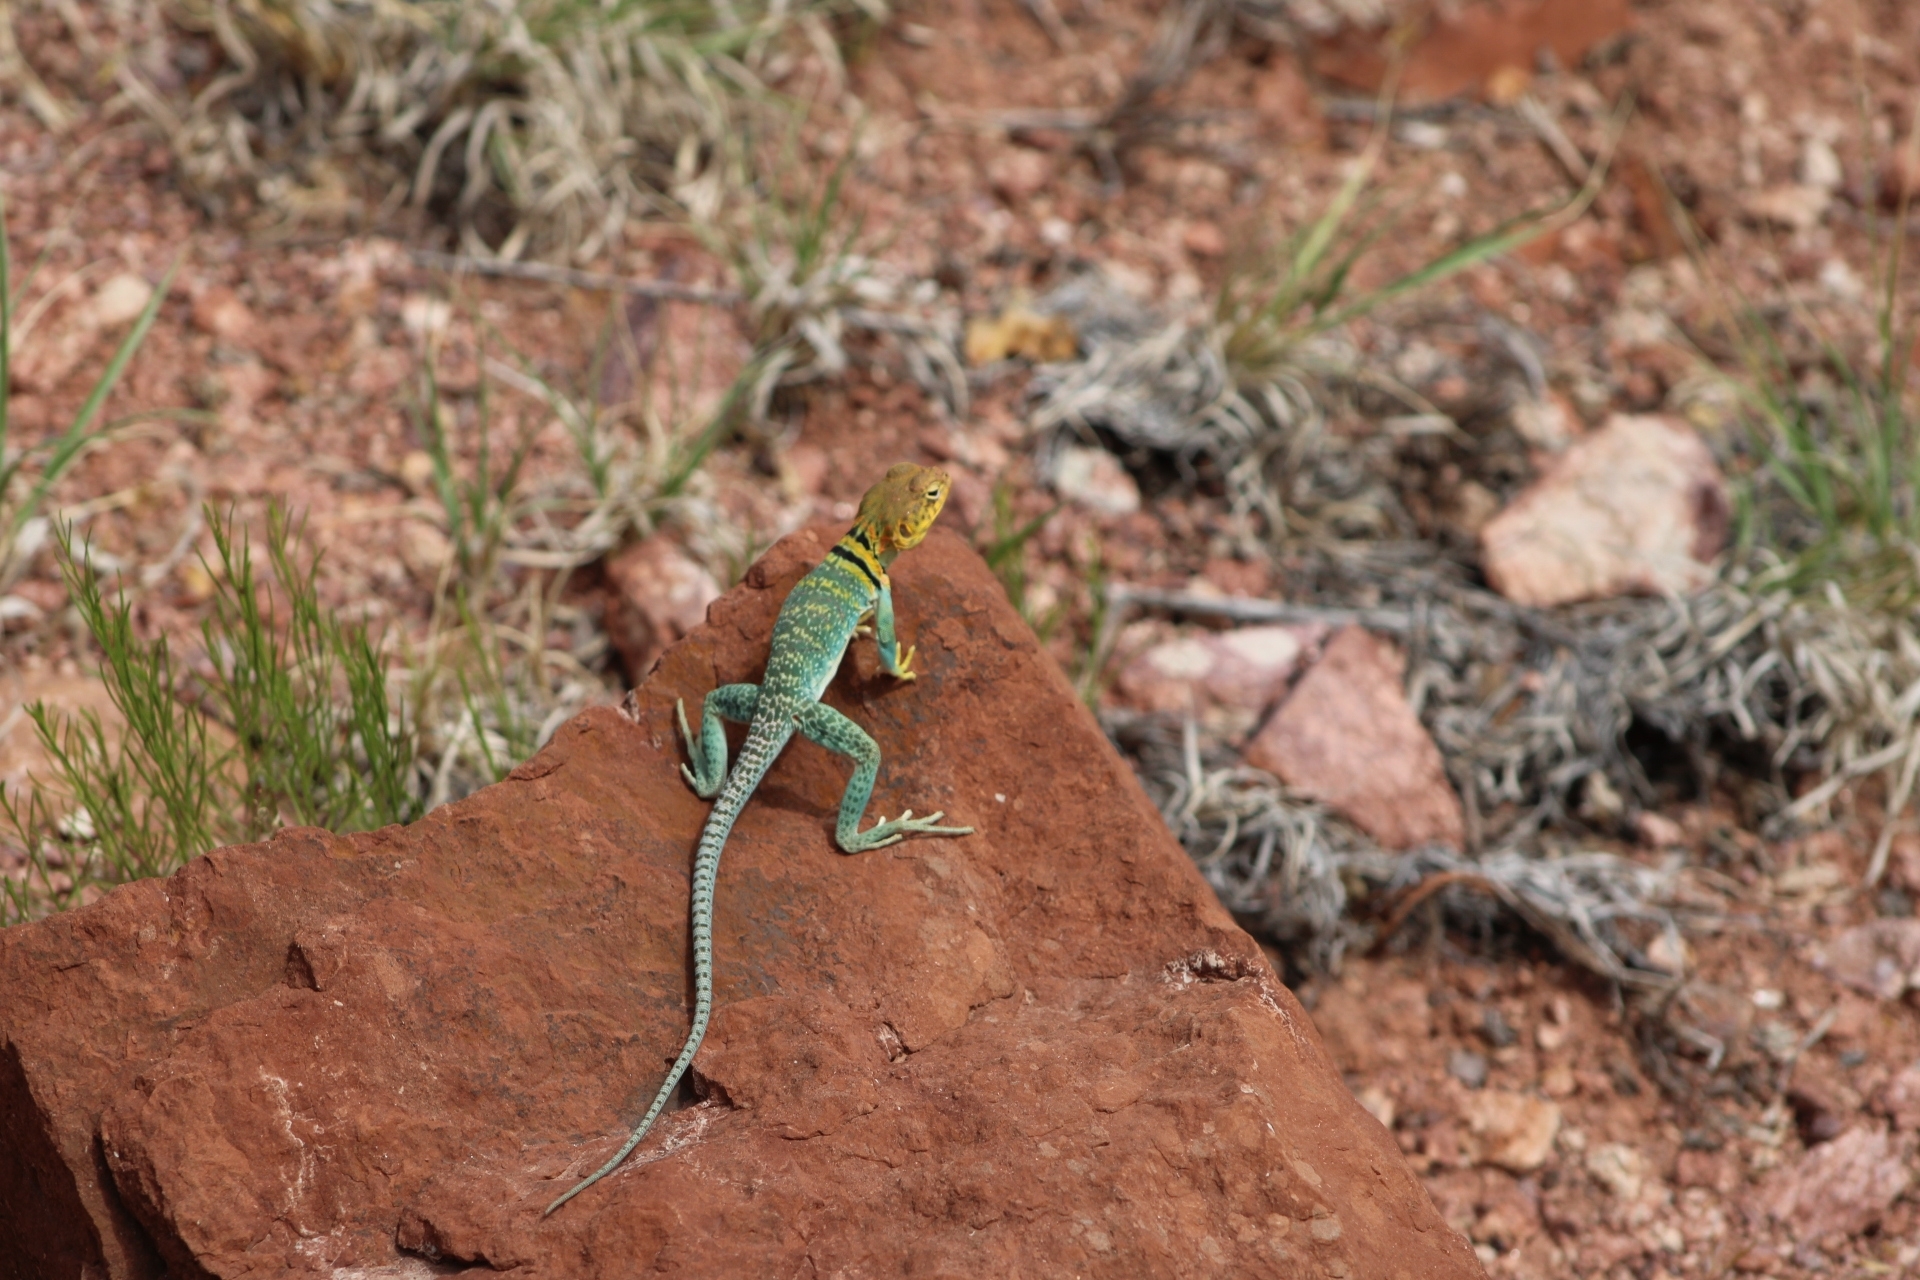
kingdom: Animalia
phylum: Chordata
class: Squamata
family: Crotaphytidae
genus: Crotaphytus
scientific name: Crotaphytus collaris
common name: Collared lizard
